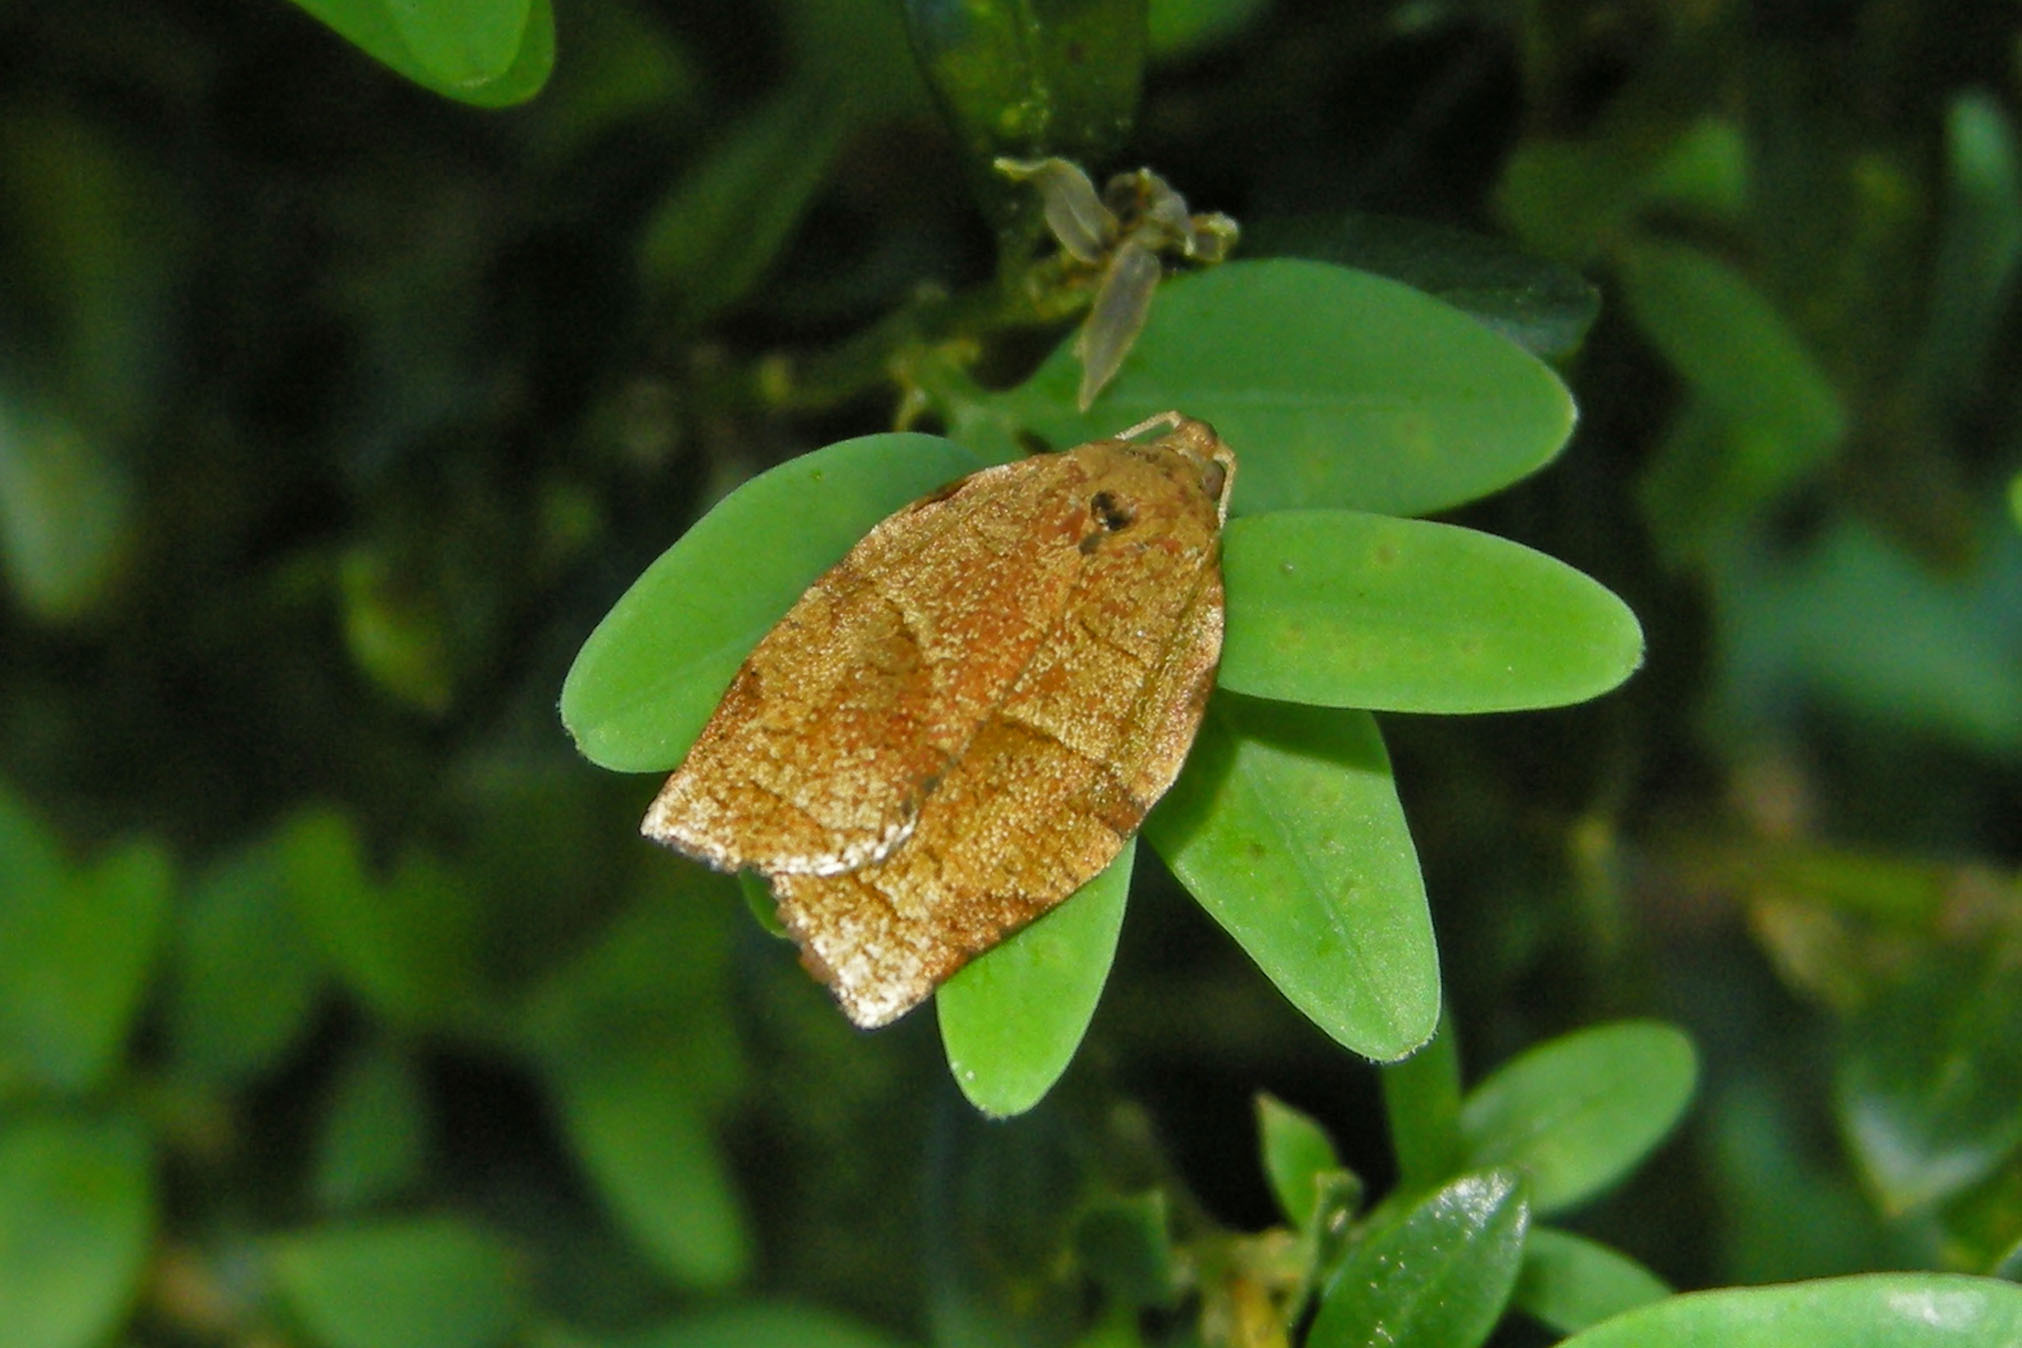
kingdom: Animalia
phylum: Arthropoda
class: Insecta
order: Lepidoptera
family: Tortricidae
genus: Choristoneura
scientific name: Choristoneura rosaceana
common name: Oblique-banded leafroller moth
